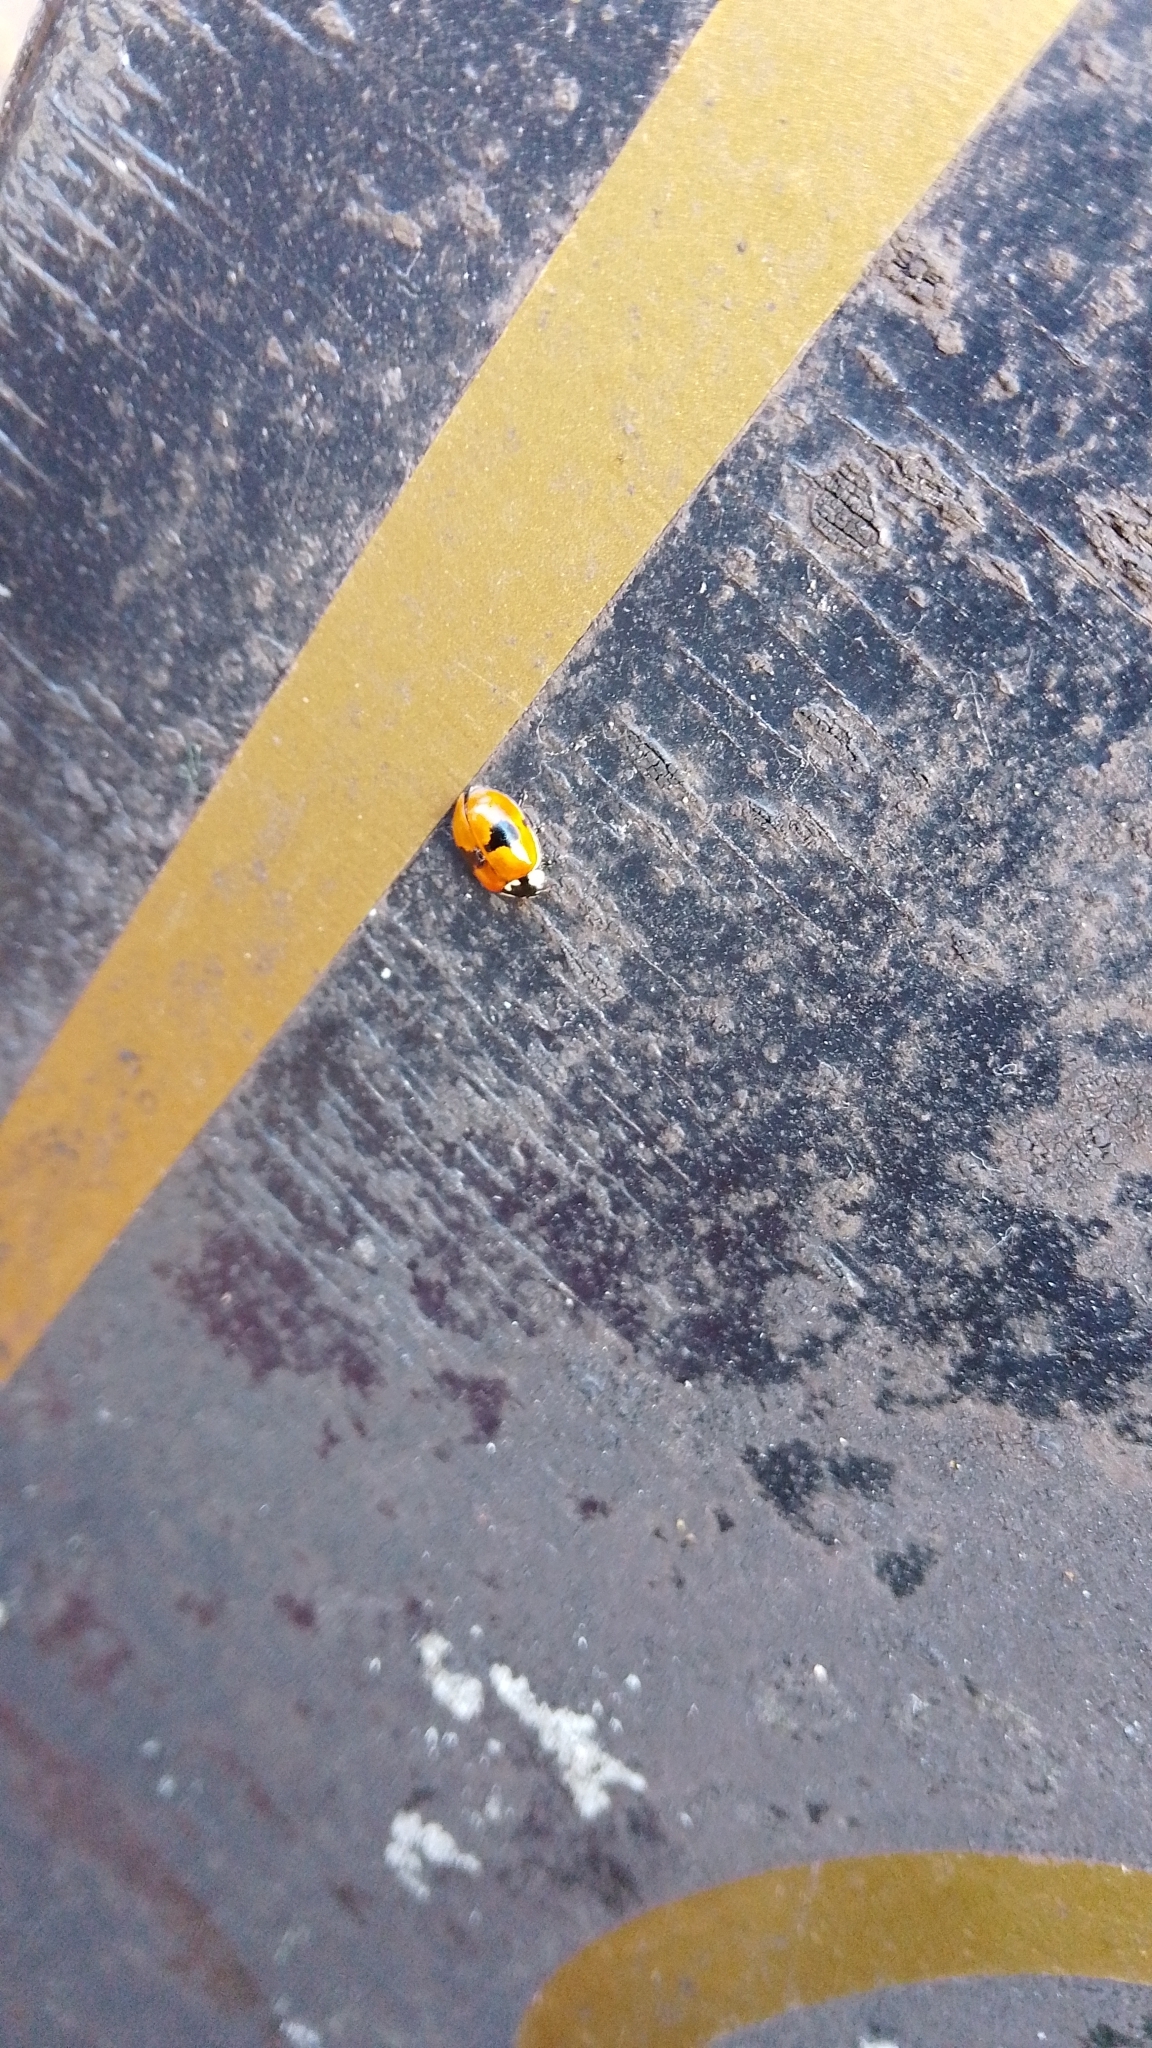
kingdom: Animalia
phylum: Arthropoda
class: Insecta
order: Coleoptera
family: Coccinellidae
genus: Adalia
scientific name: Adalia bipunctata
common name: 2-spot ladybird
